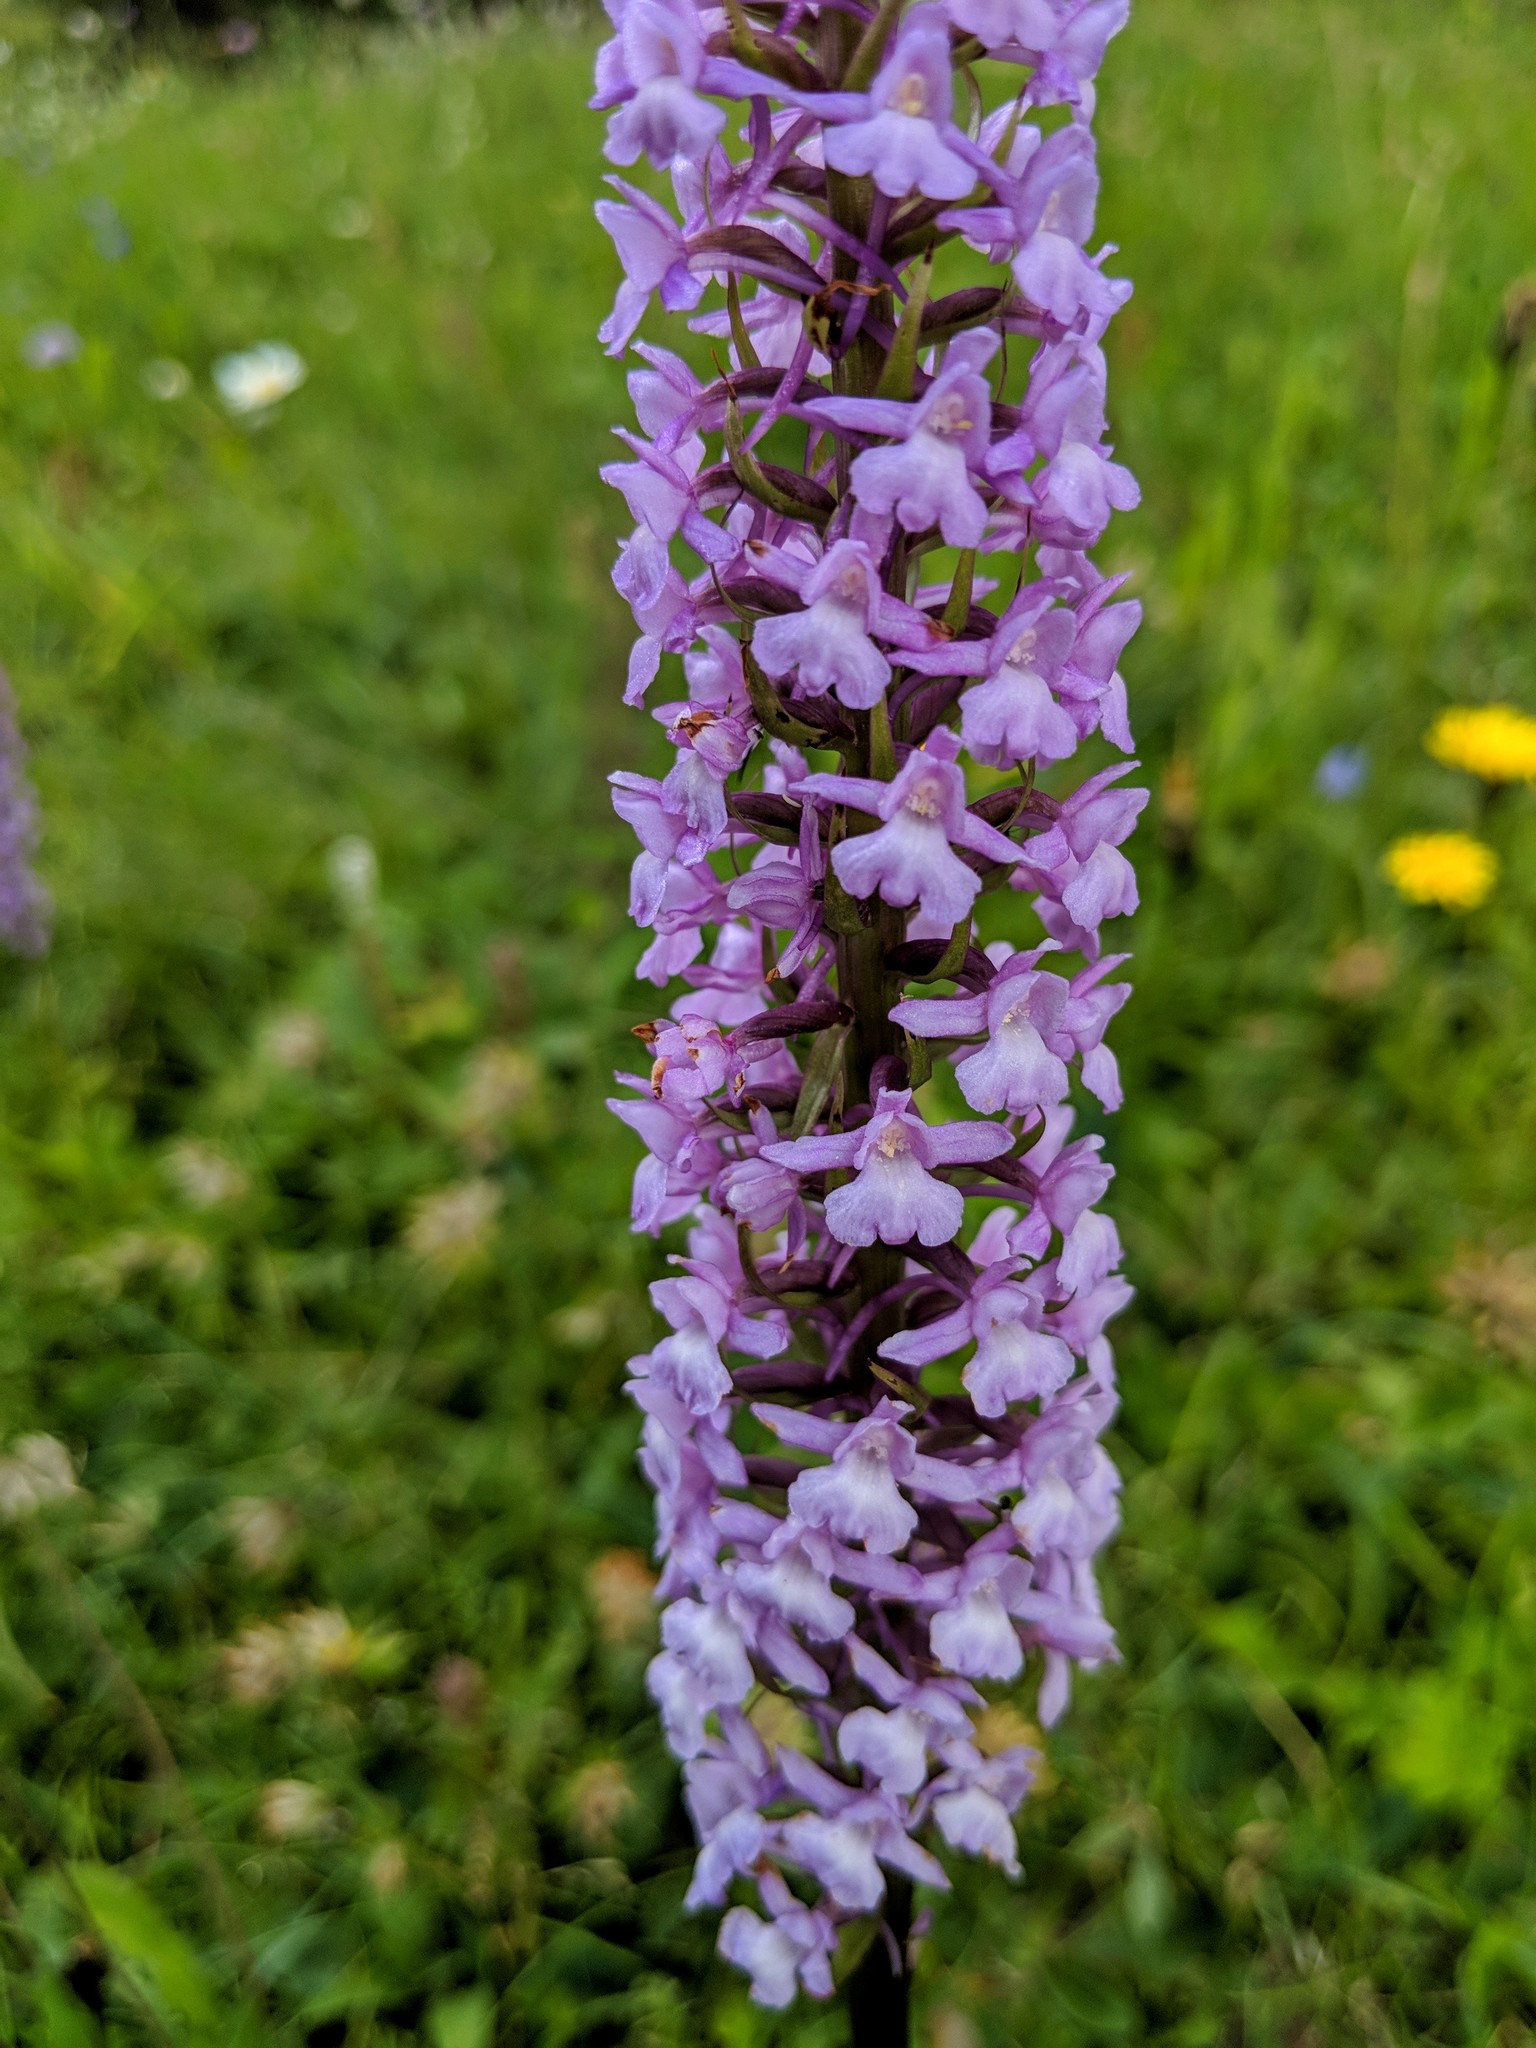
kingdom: Plantae
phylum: Tracheophyta
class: Liliopsida
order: Asparagales
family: Orchidaceae
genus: Gymnadenia
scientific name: Gymnadenia conopsea
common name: Fragrant orchid
